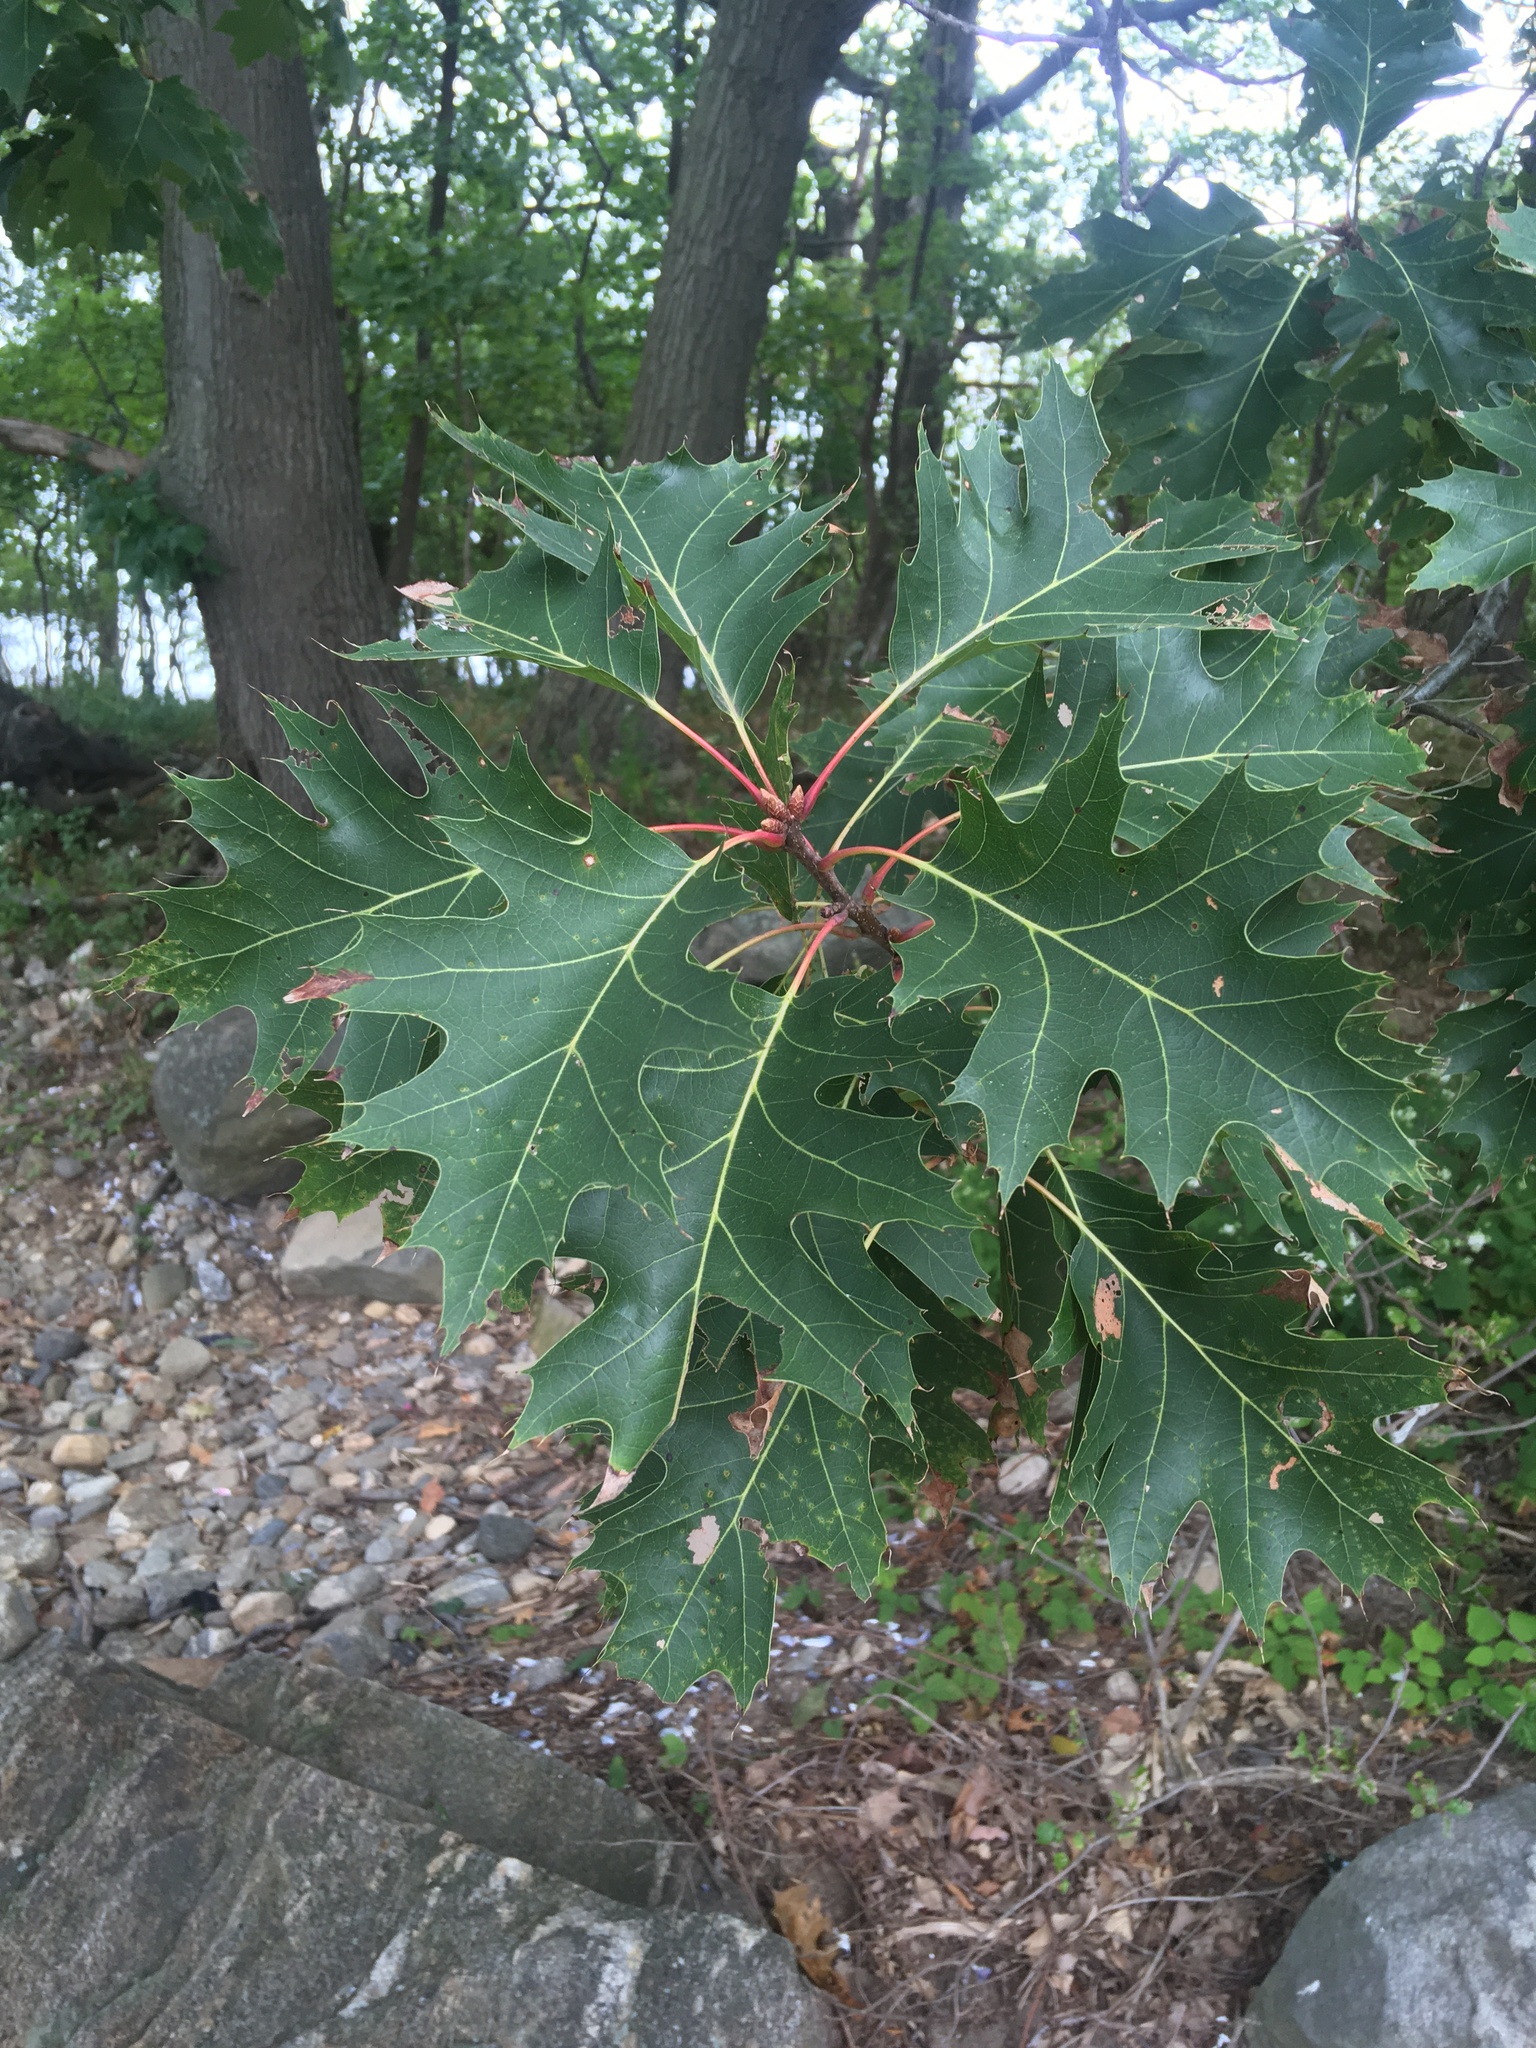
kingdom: Plantae
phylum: Tracheophyta
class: Magnoliopsida
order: Fagales
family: Fagaceae
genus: Quercus
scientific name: Quercus rubra
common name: Red oak
